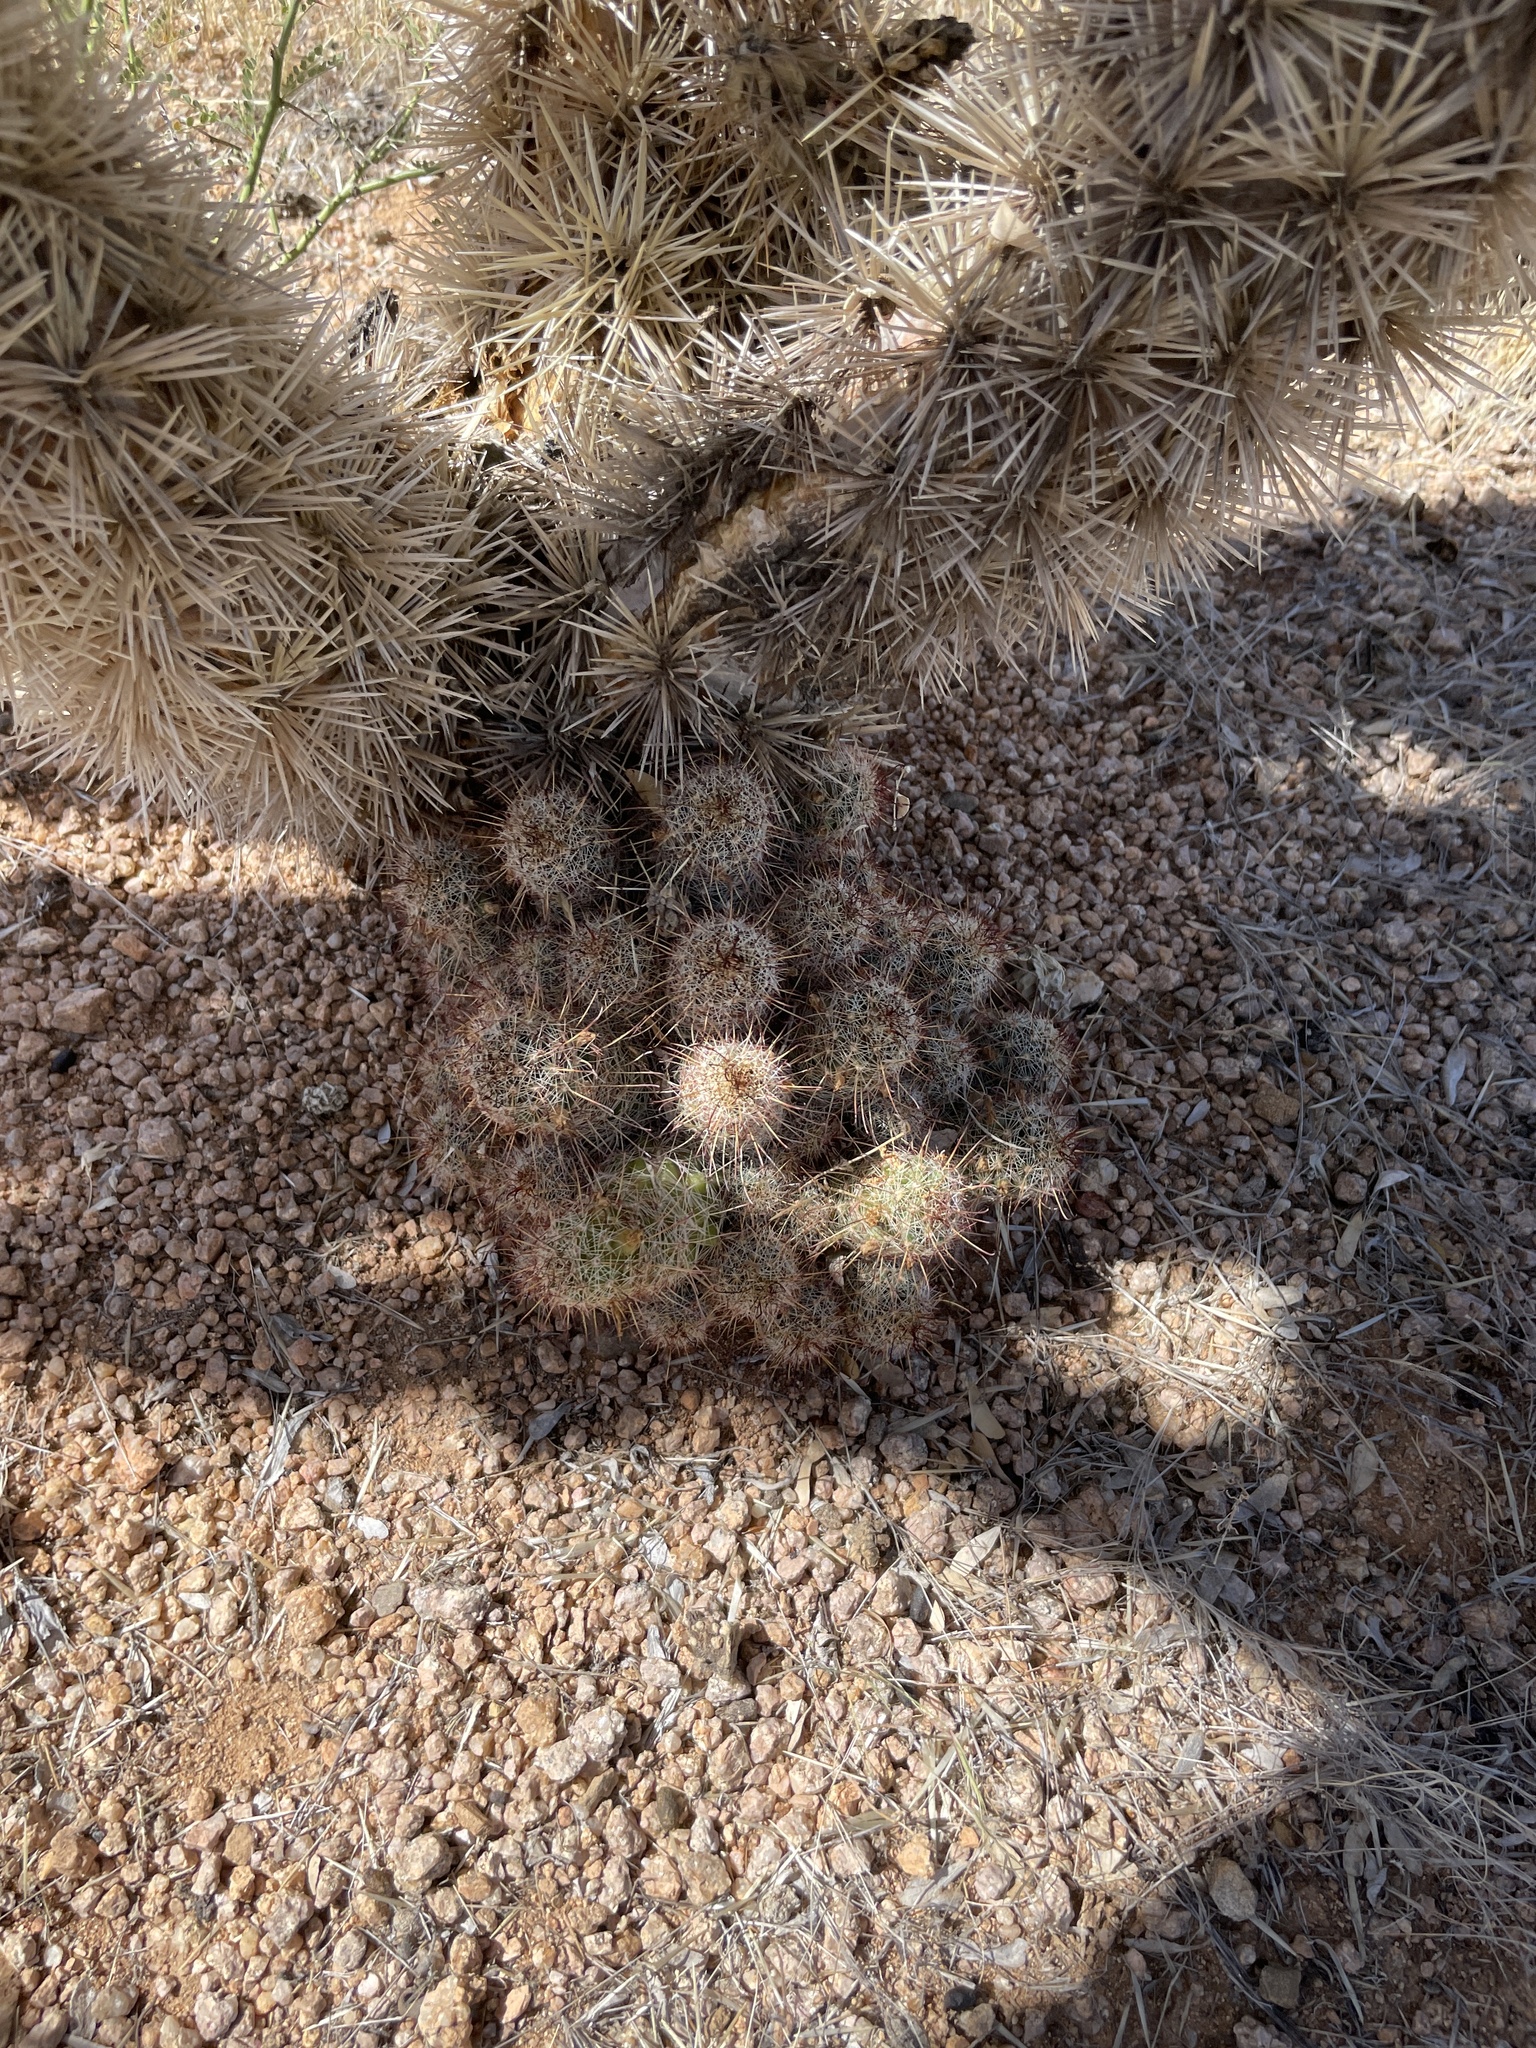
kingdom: Plantae
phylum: Tracheophyta
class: Magnoliopsida
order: Caryophyllales
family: Cactaceae
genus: Cochemiea
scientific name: Cochemiea thornberi
